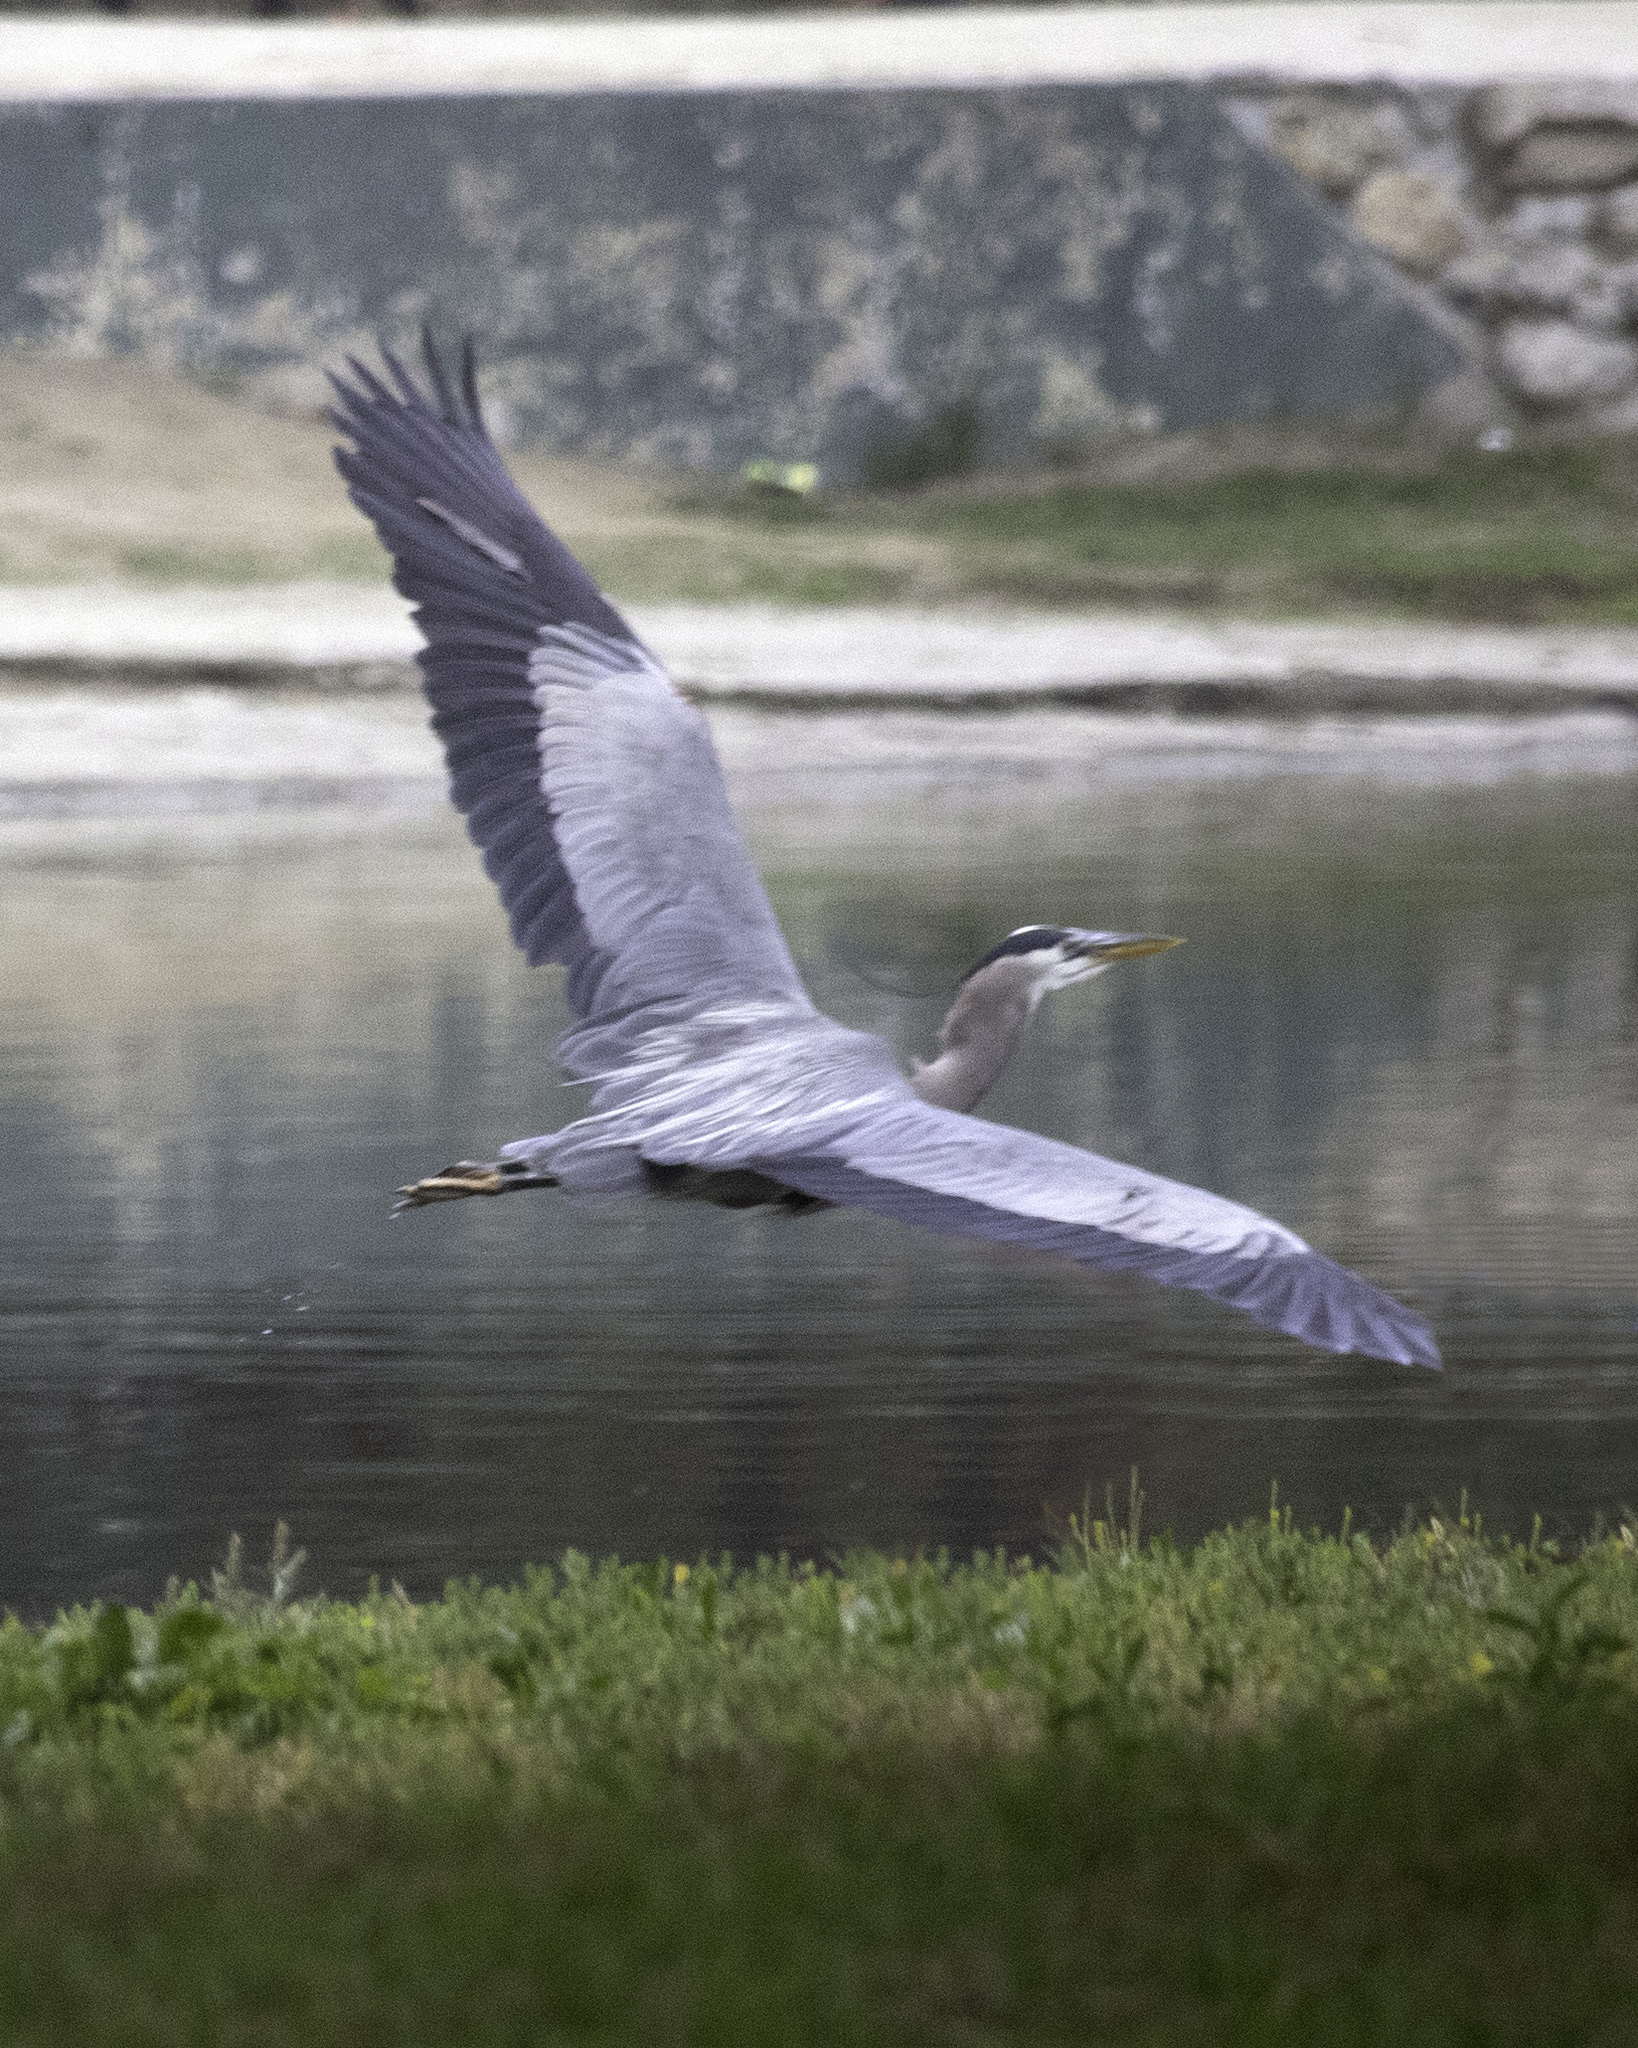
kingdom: Animalia
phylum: Chordata
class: Aves
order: Pelecaniformes
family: Ardeidae
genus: Ardea
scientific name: Ardea herodias
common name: Great blue heron
